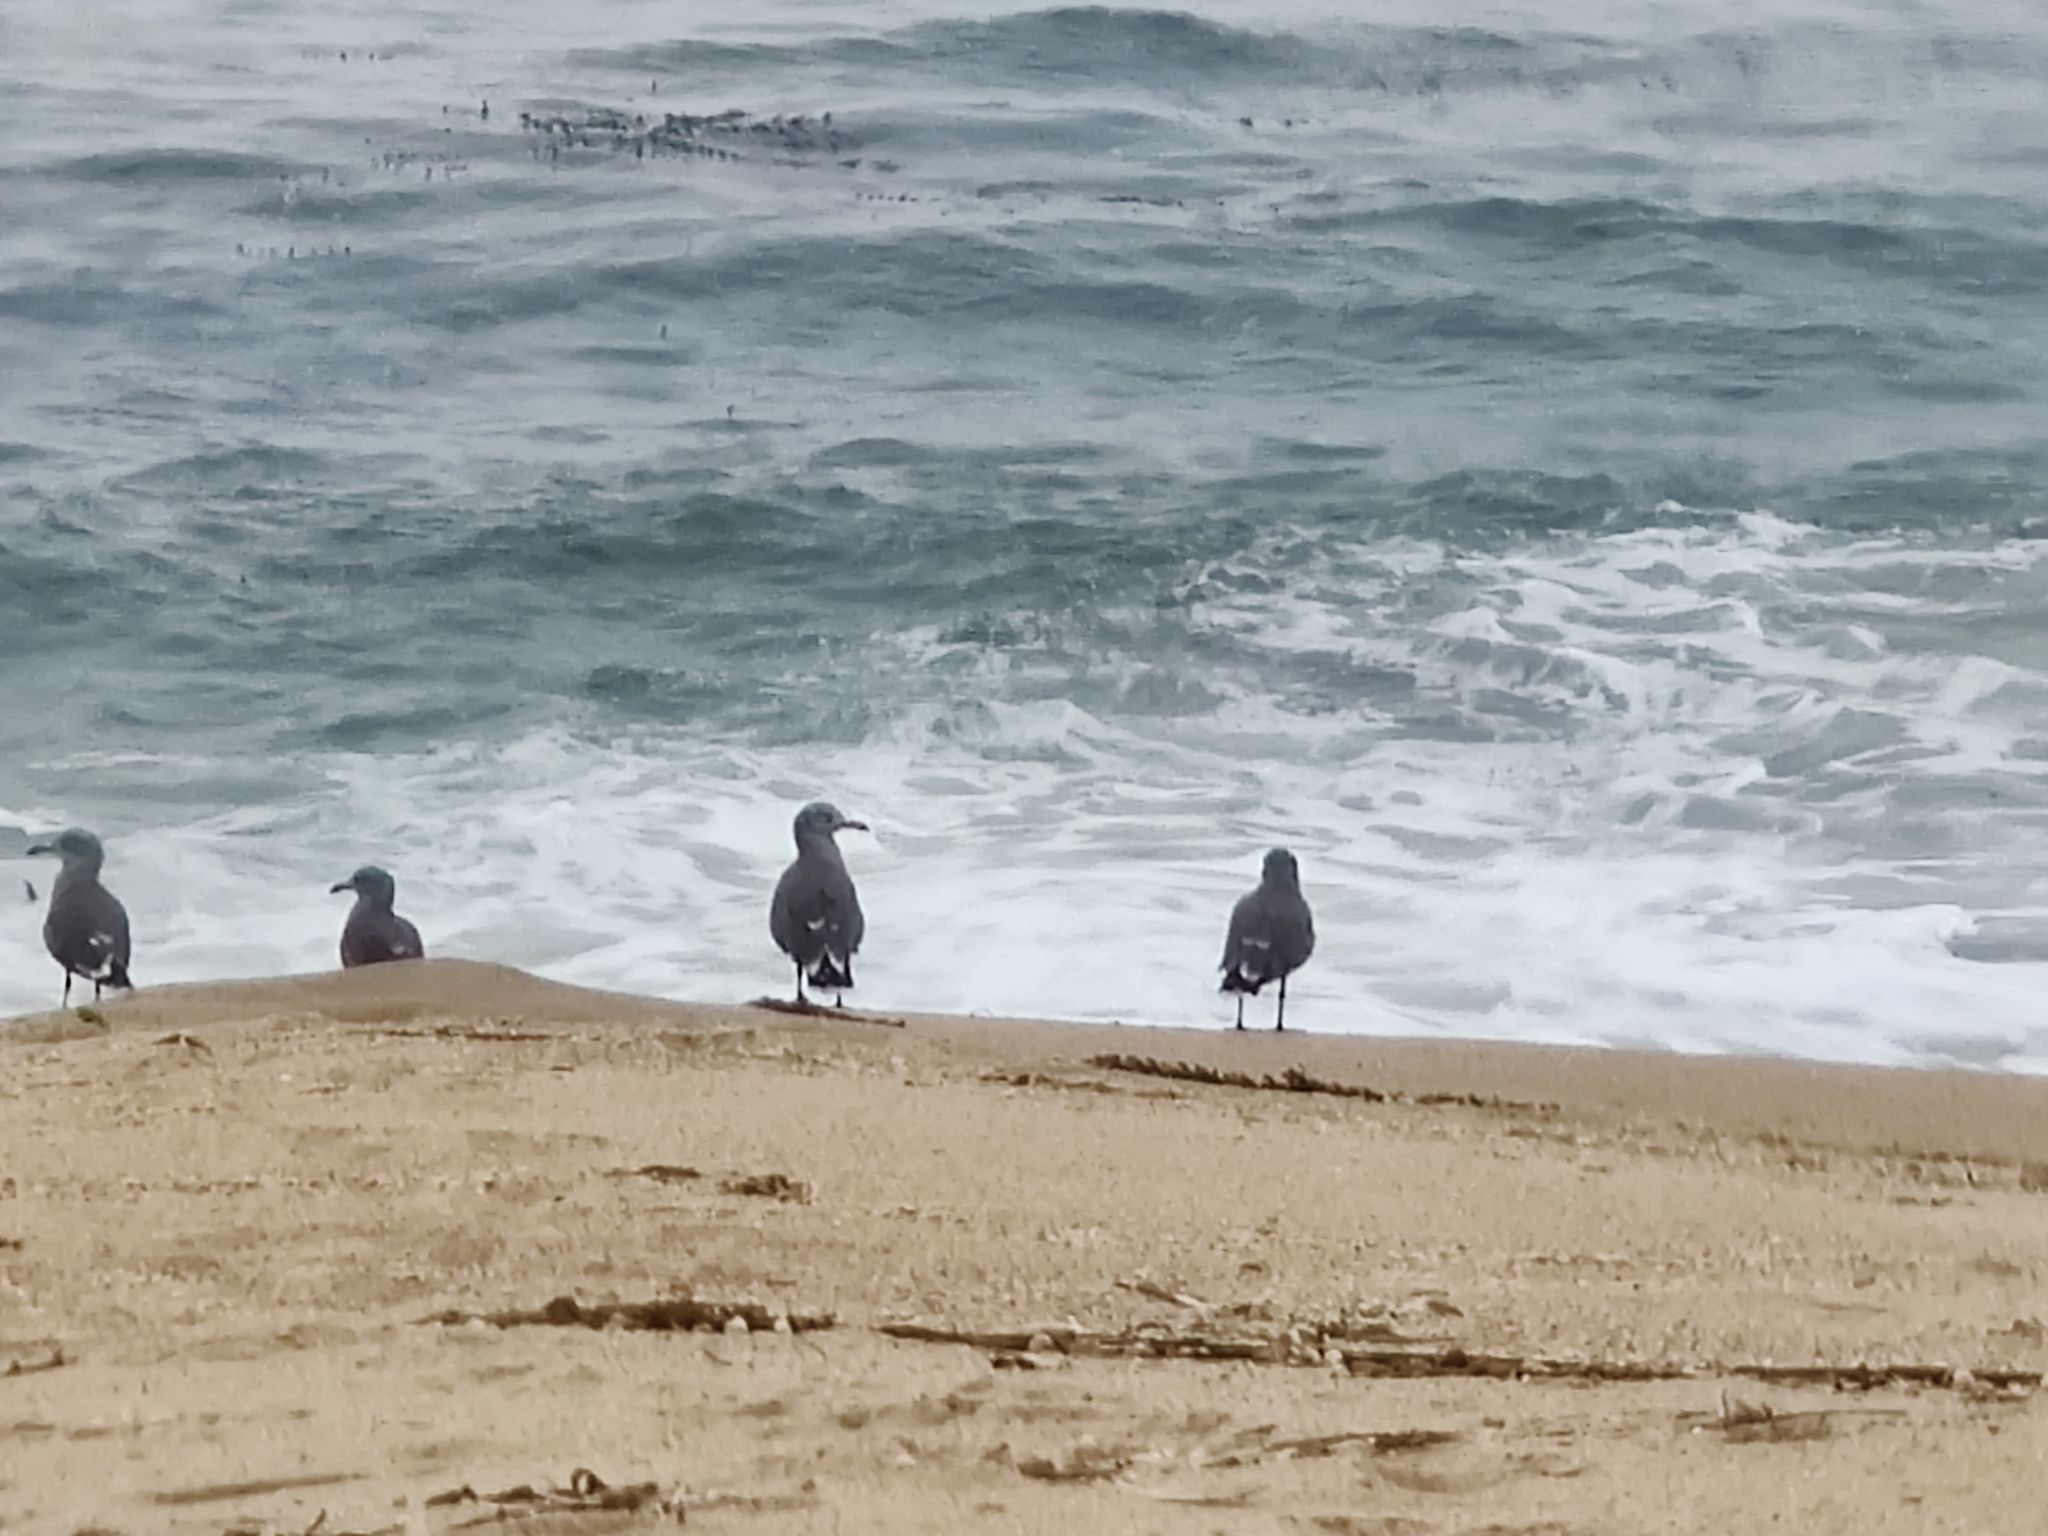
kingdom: Animalia
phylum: Chordata
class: Aves
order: Charadriiformes
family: Laridae
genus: Larus
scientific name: Larus heermanni
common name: Heermann's gull
